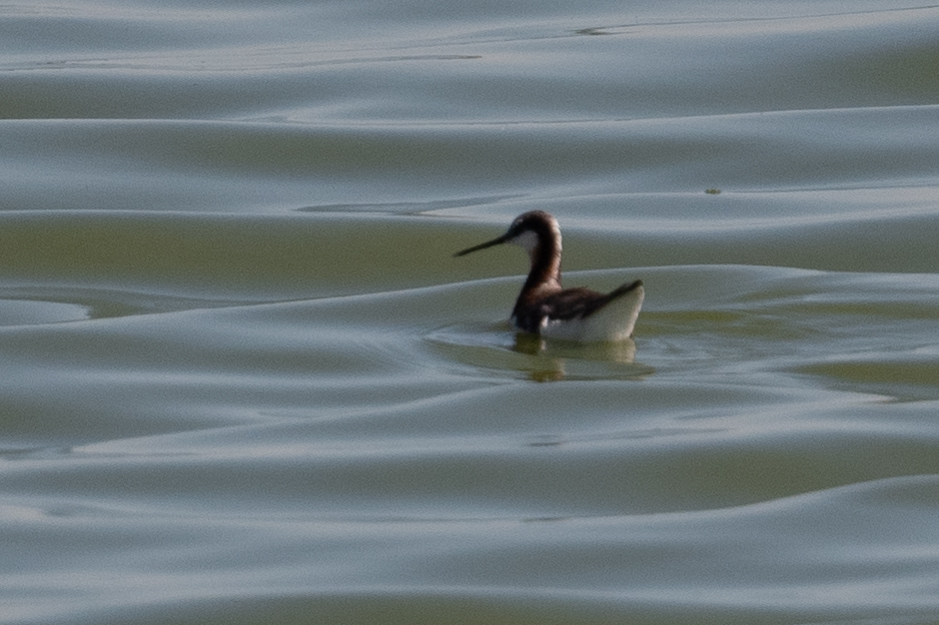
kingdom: Animalia
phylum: Chordata
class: Aves
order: Charadriiformes
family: Scolopacidae
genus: Phalaropus
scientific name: Phalaropus tricolor
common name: Wilson's phalarope
